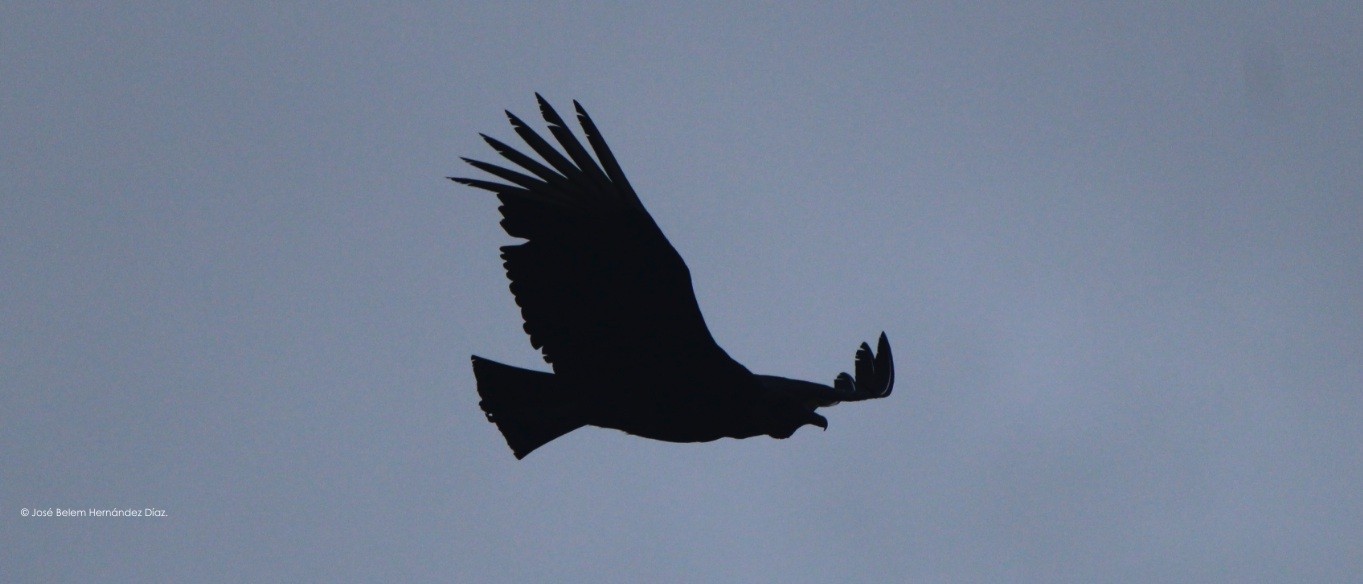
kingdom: Animalia
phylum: Chordata
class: Aves
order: Accipitriformes
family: Cathartidae
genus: Coragyps
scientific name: Coragyps atratus
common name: Black vulture
